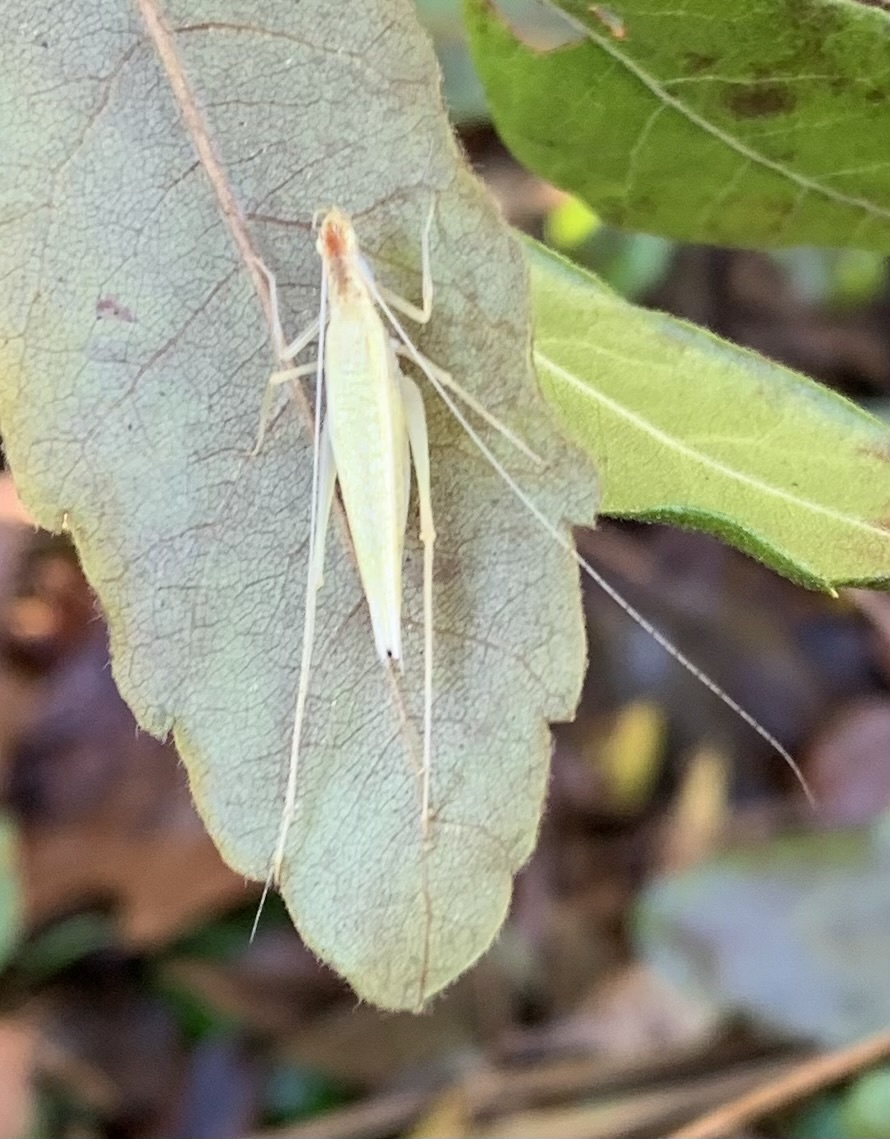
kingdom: Animalia
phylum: Arthropoda
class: Insecta
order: Orthoptera
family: Gryllidae
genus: Oecanthus
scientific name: Oecanthus niveus
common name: Narrow-winged tree cricket
